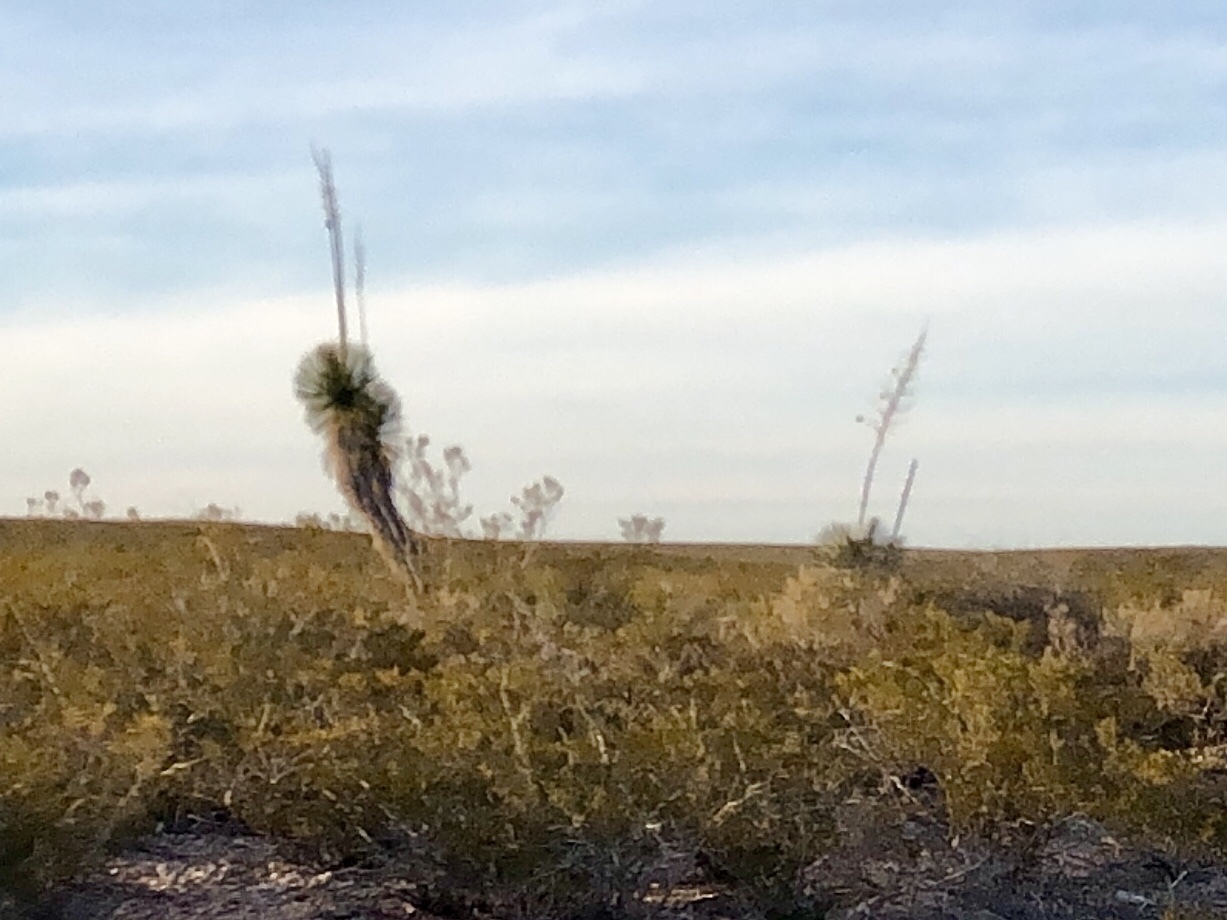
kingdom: Plantae
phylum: Tracheophyta
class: Magnoliopsida
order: Zygophyllales
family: Zygophyllaceae
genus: Larrea
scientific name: Larrea tridentata
